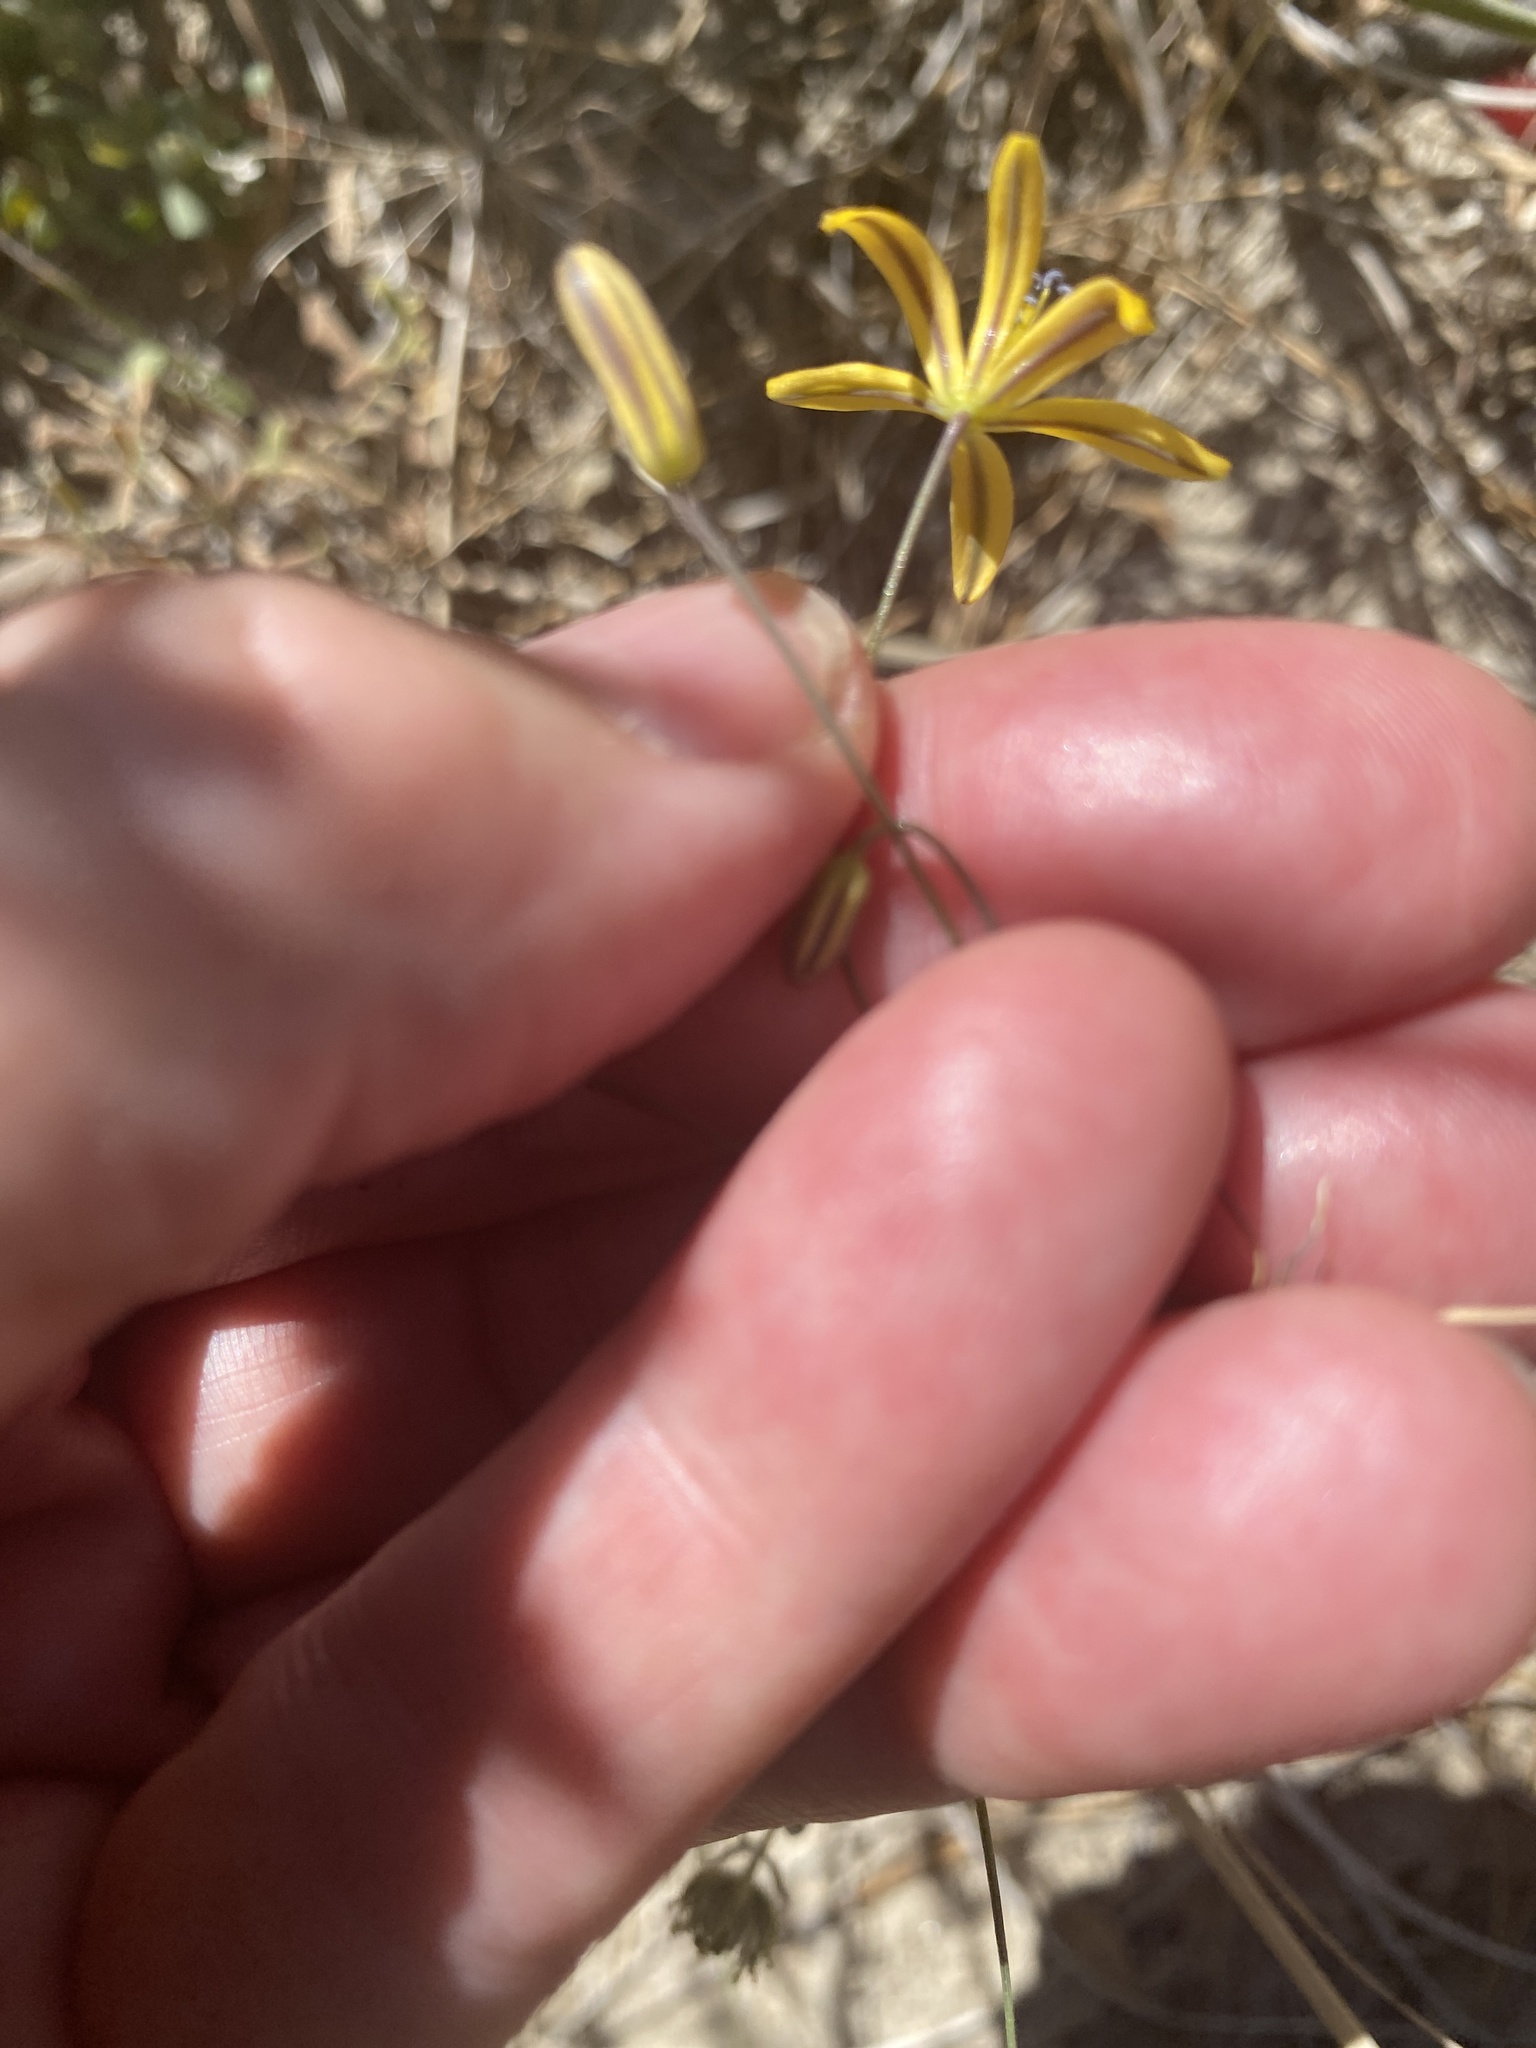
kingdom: Plantae
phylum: Tracheophyta
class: Liliopsida
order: Asparagales
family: Asparagaceae
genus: Bloomeria
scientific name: Bloomeria crocea
